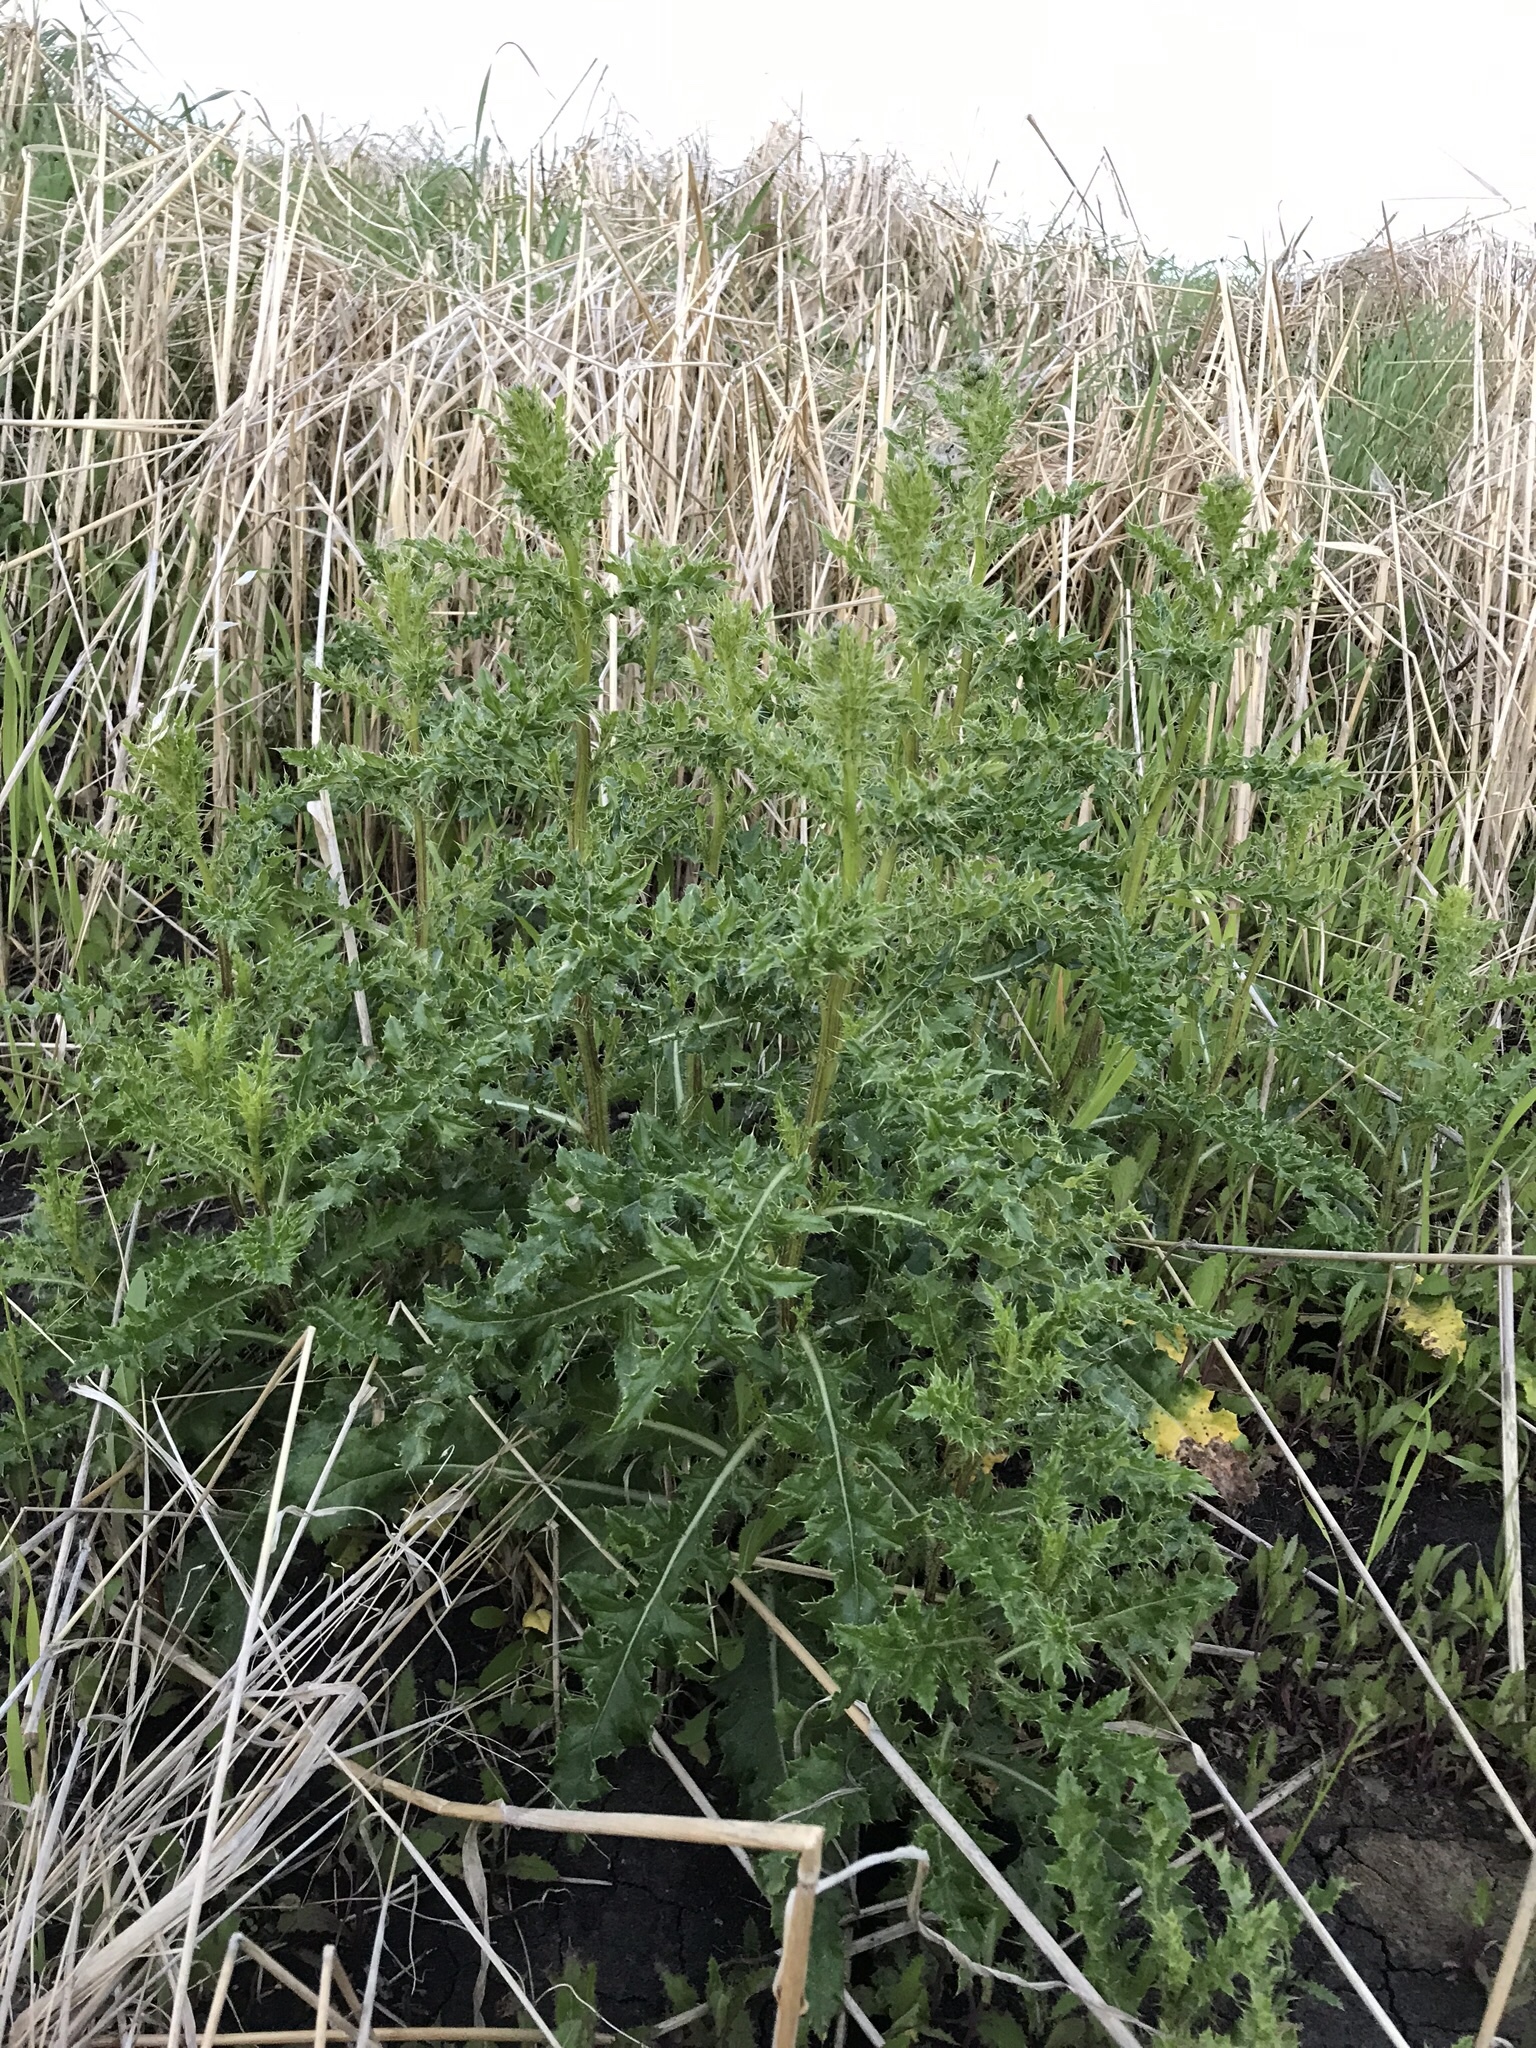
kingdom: Plantae
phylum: Tracheophyta
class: Magnoliopsida
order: Asterales
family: Asteraceae
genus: Cirsium
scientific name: Cirsium arvense
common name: Creeping thistle
